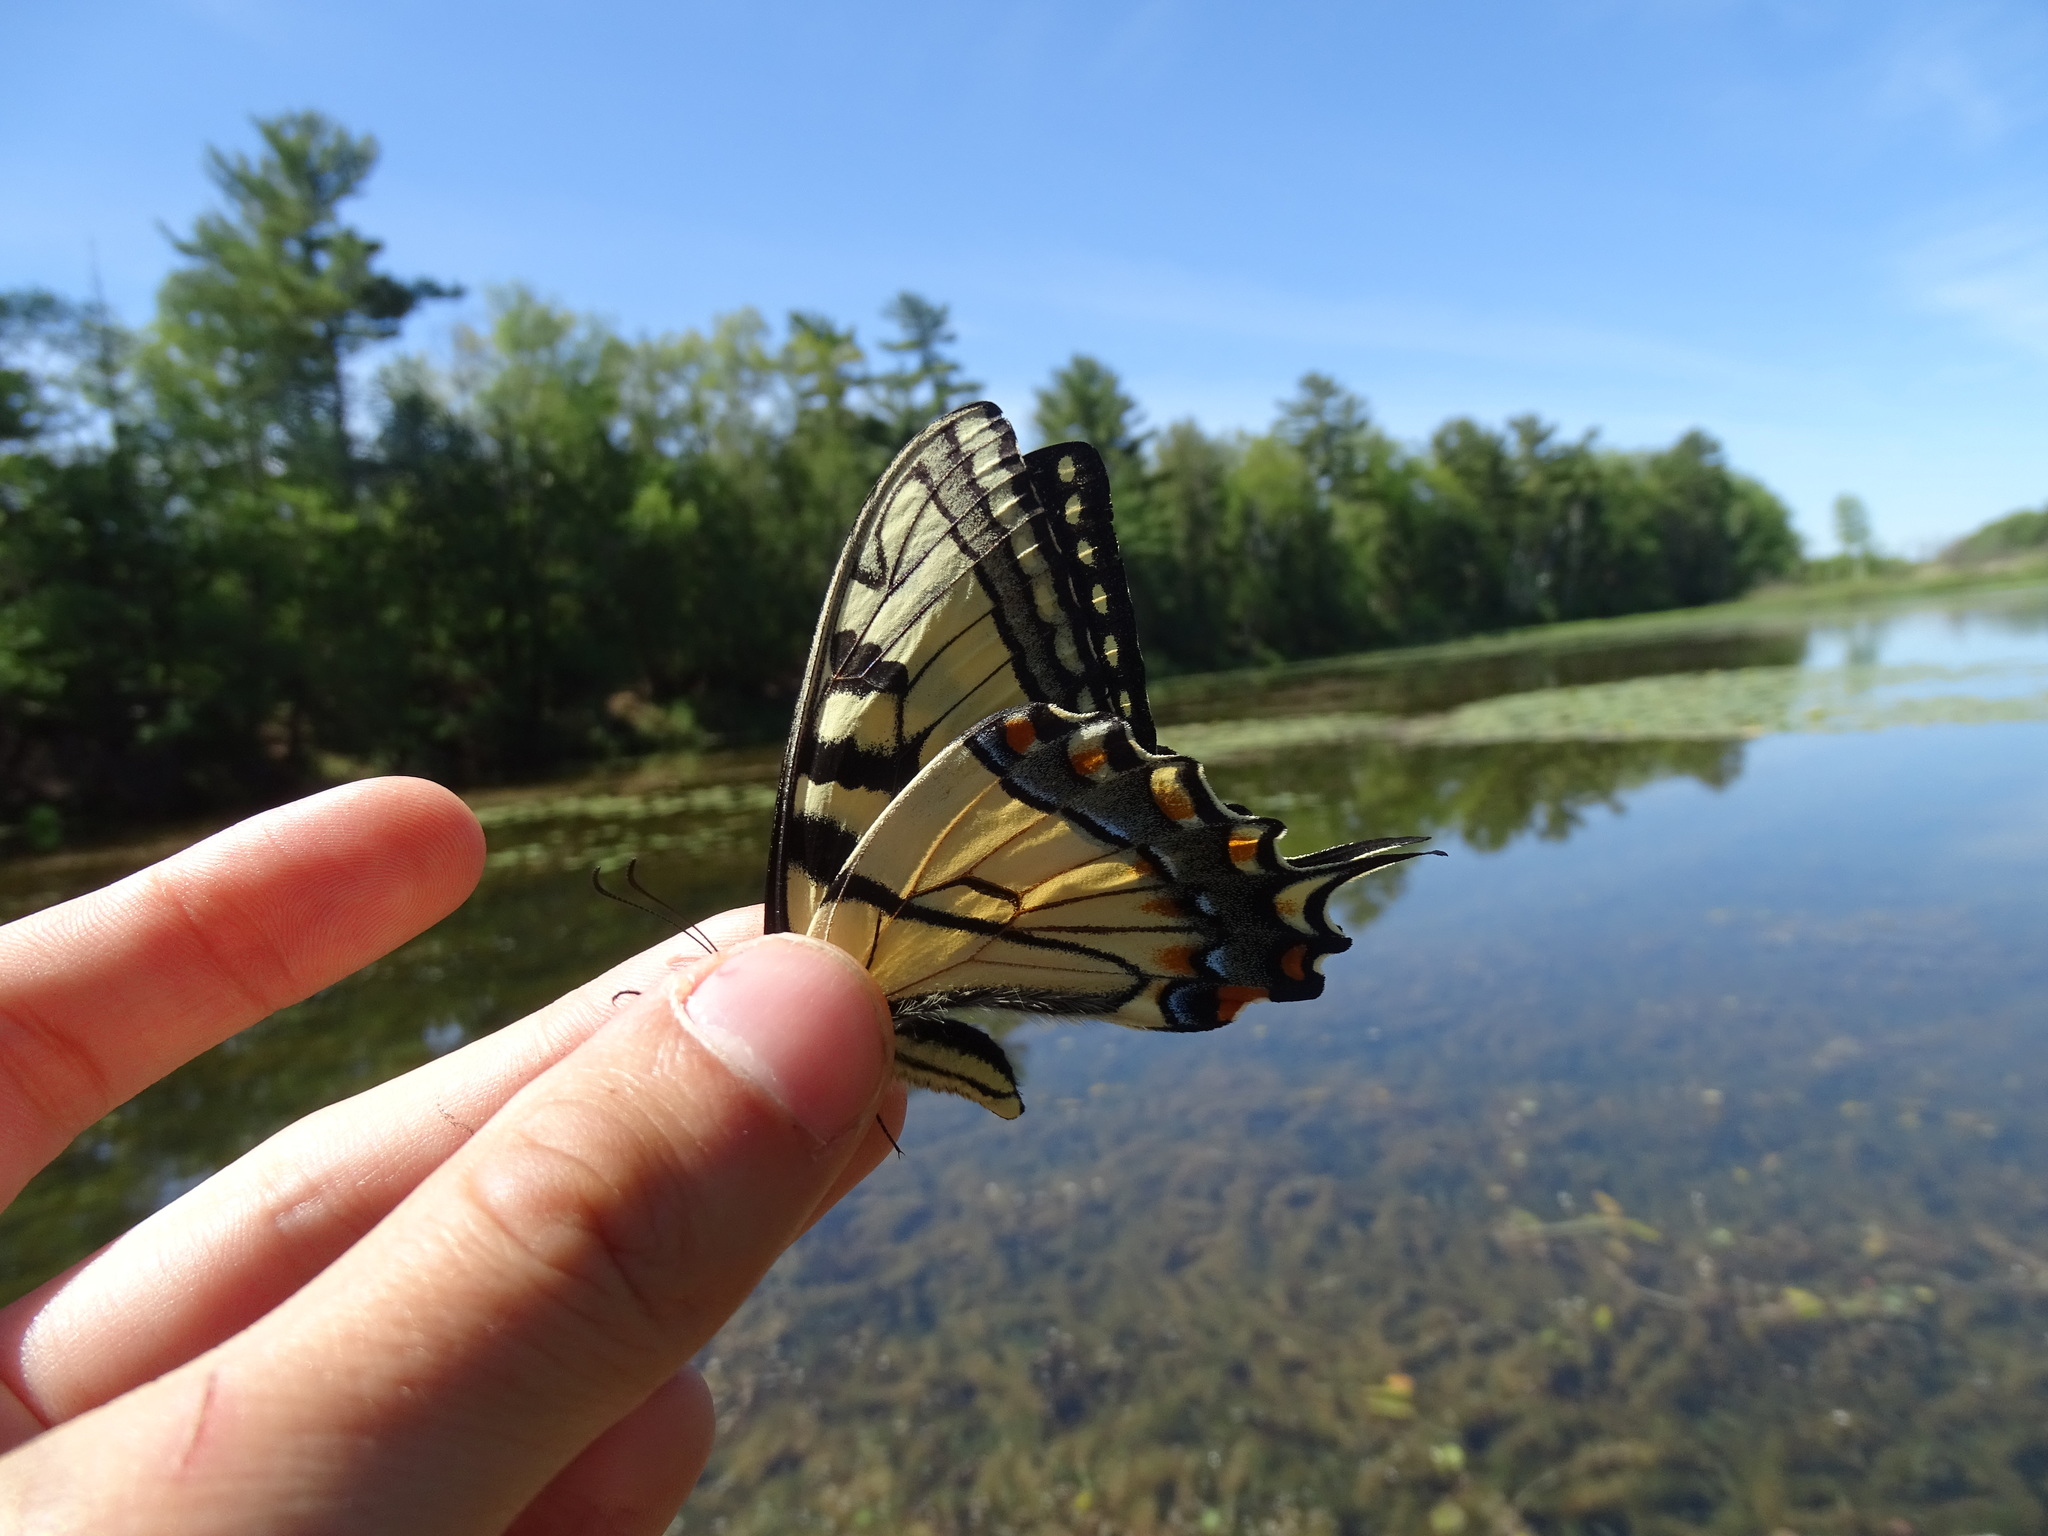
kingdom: Animalia
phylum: Arthropoda
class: Insecta
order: Lepidoptera
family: Papilionidae
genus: Papilio
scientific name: Papilio glaucus
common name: Tiger swallowtail
